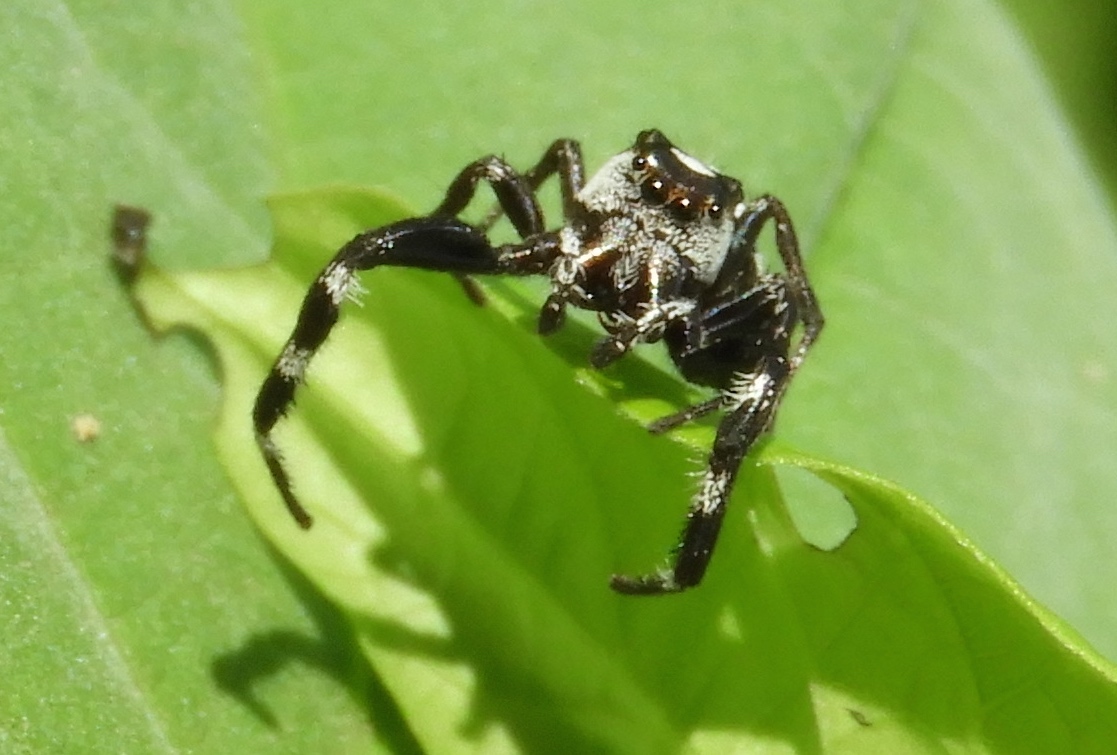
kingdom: Animalia
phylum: Arthropoda
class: Arachnida
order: Araneae
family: Salticidae
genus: Dendryphantes
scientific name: Dendryphantes zygoballoides
